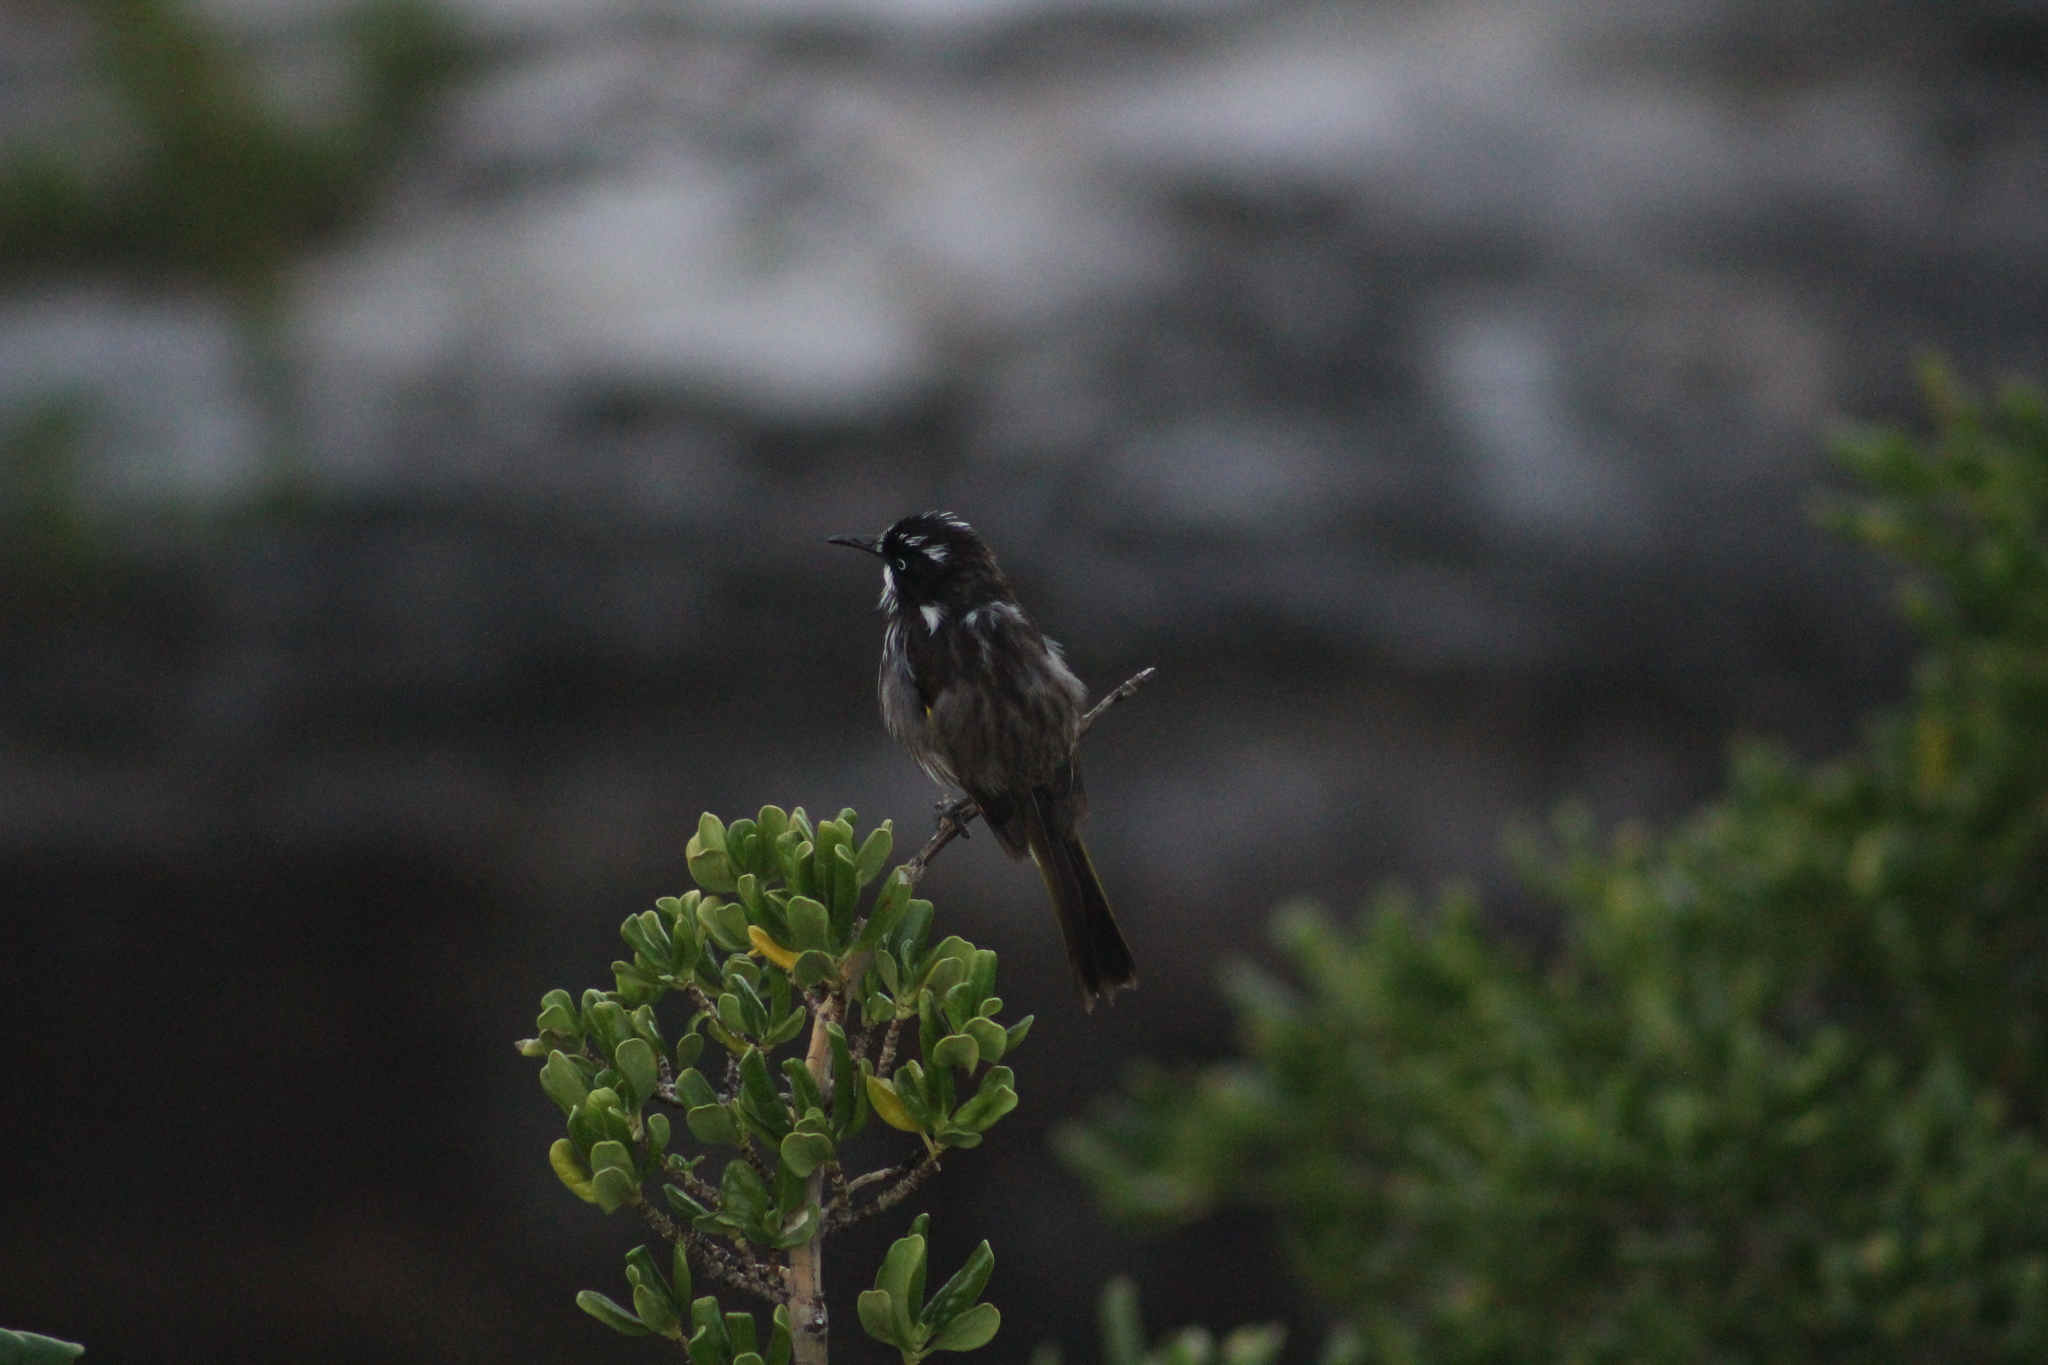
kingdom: Animalia
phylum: Chordata
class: Aves
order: Passeriformes
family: Meliphagidae
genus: Phylidonyris
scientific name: Phylidonyris novaehollandiae
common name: New holland honeyeater
